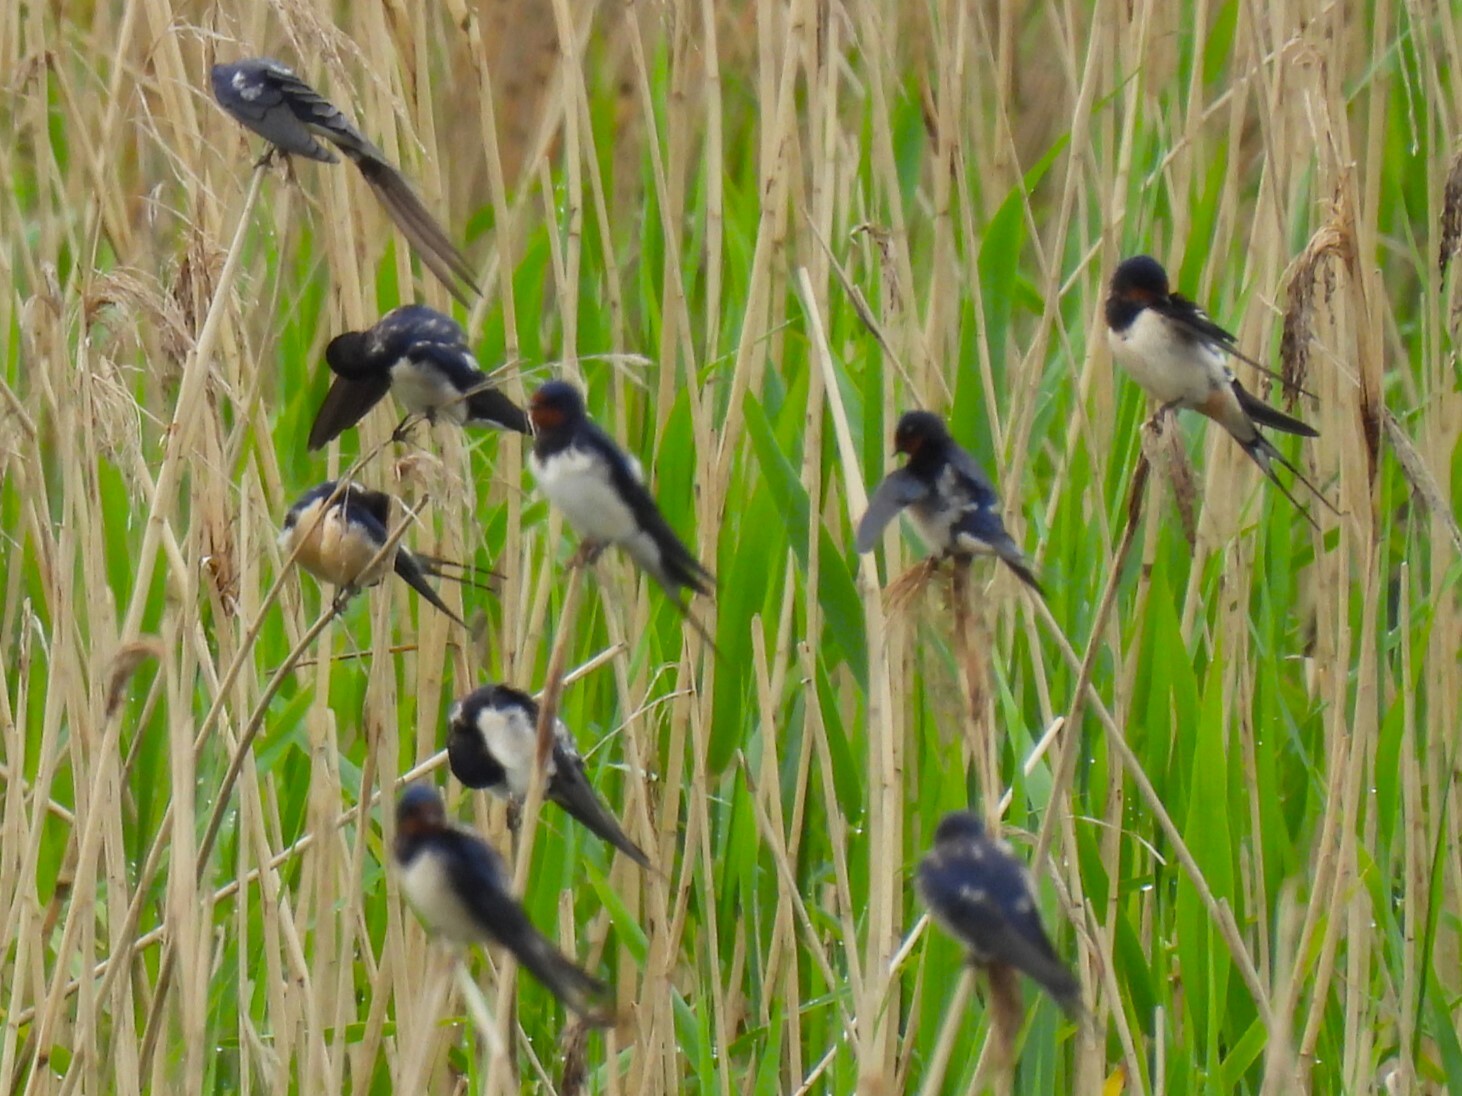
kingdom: Animalia
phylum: Chordata
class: Aves
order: Passeriformes
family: Hirundinidae
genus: Hirundo
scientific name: Hirundo rustica
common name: Barn swallow
